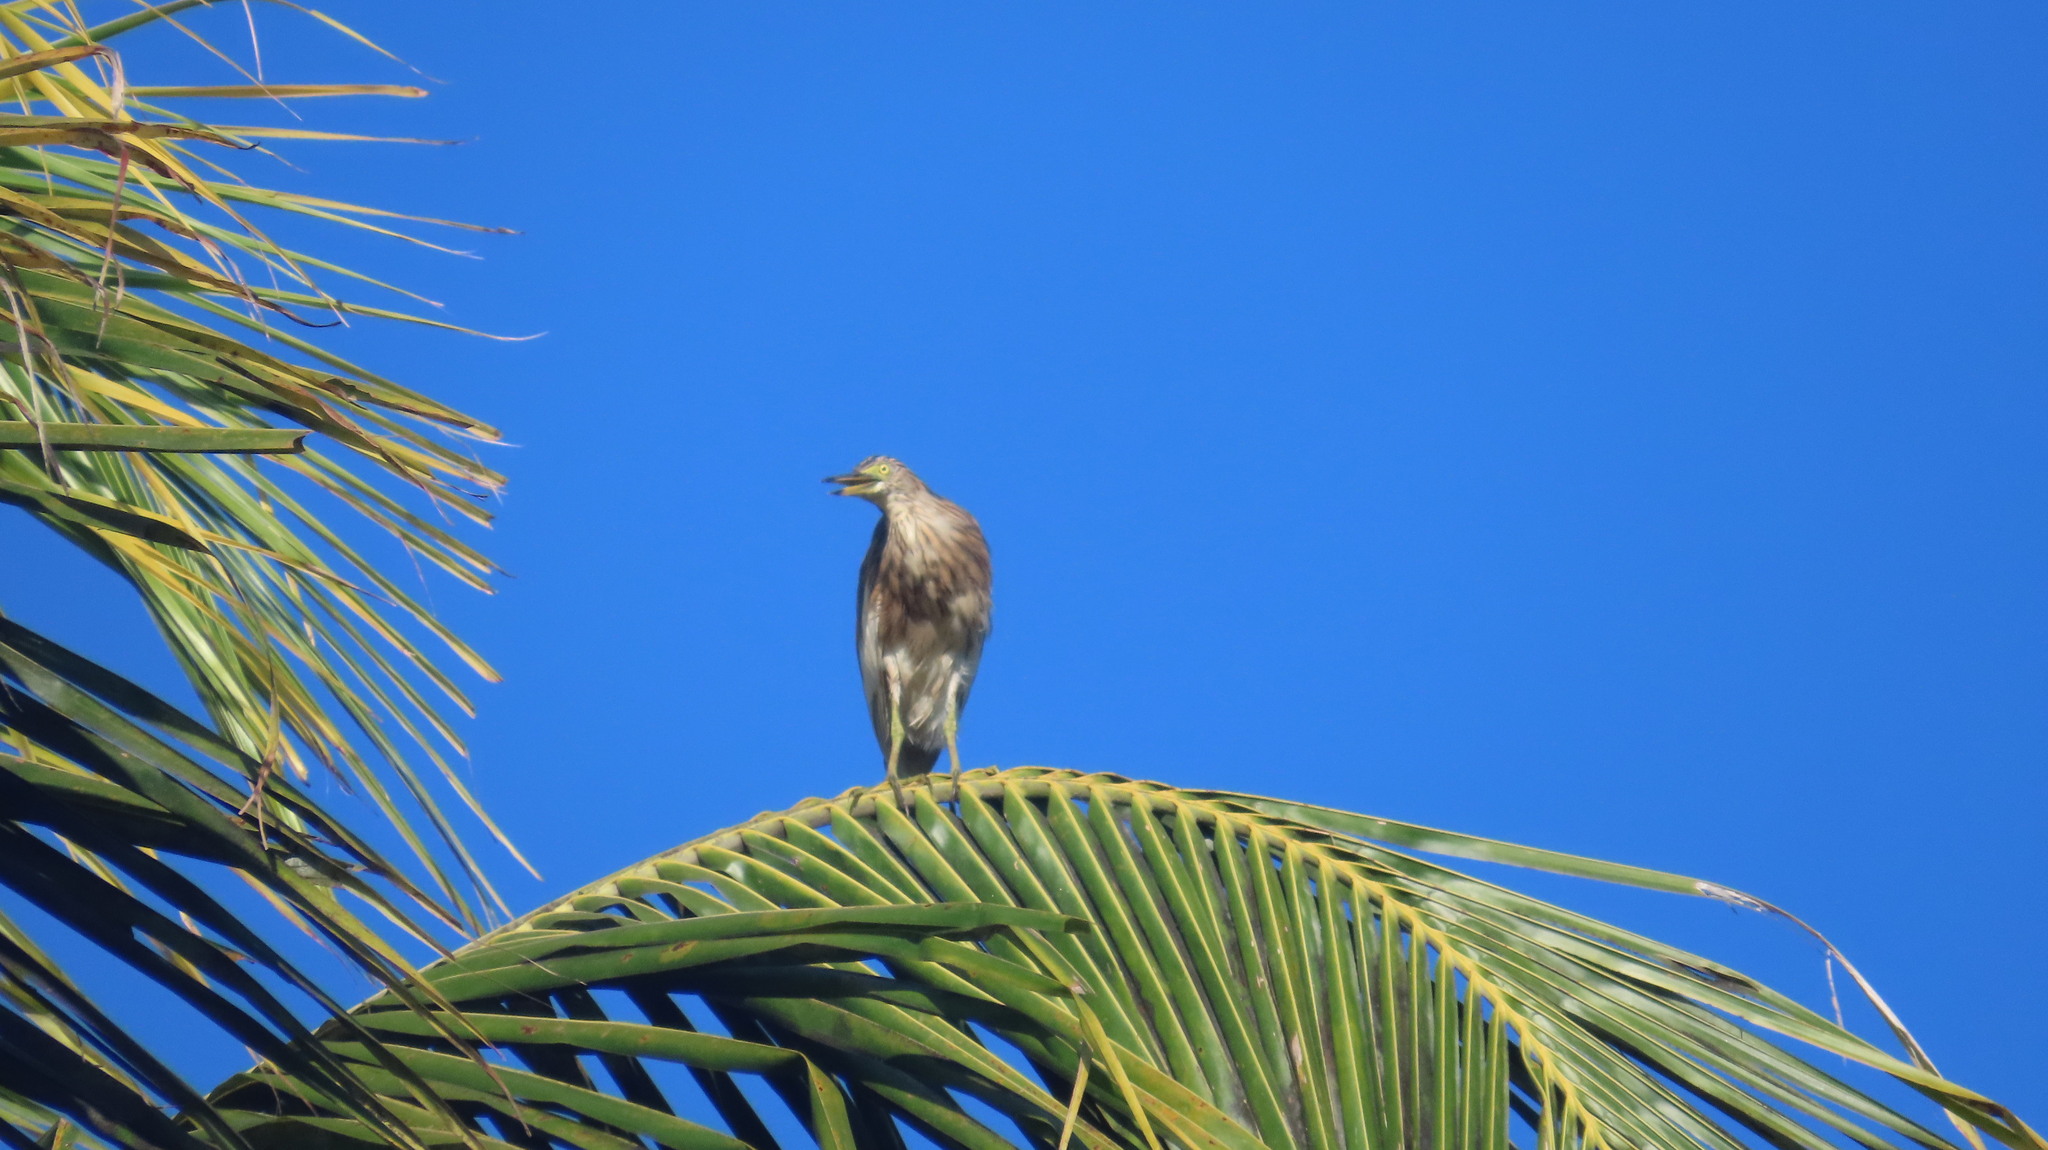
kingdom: Animalia
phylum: Chordata
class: Aves
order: Pelecaniformes
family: Ardeidae
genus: Ardeola
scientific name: Ardeola grayii
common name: Indian pond heron
